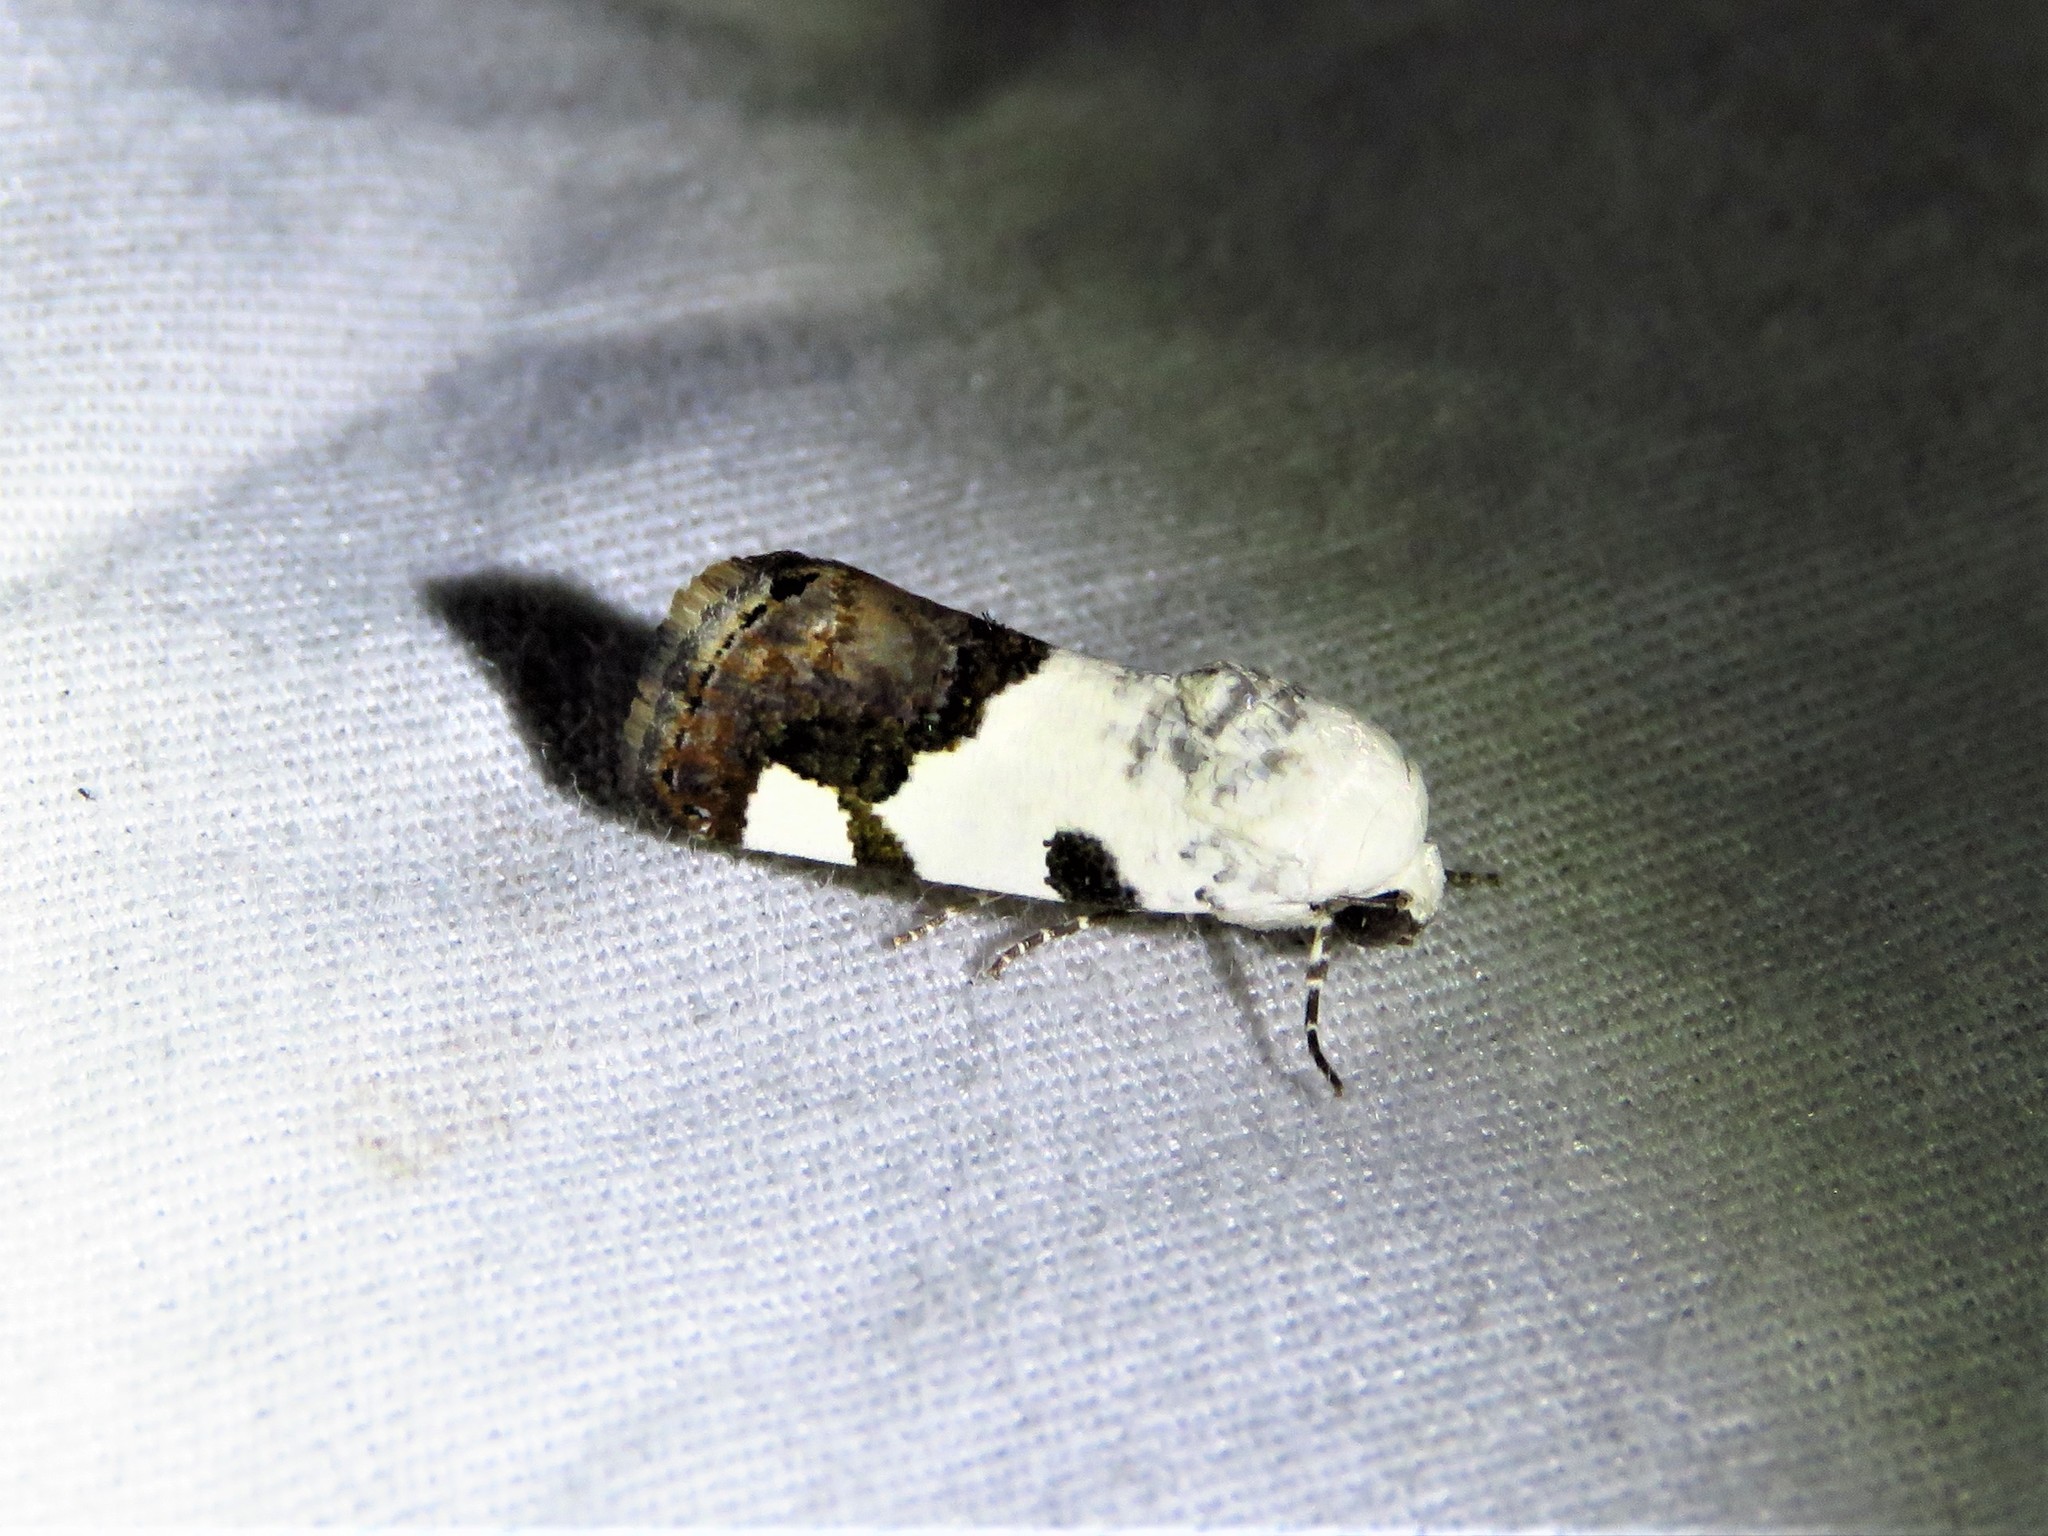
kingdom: Animalia
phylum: Arthropoda
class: Insecta
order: Lepidoptera
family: Noctuidae
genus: Acontia
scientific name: Acontia quadriplaga
